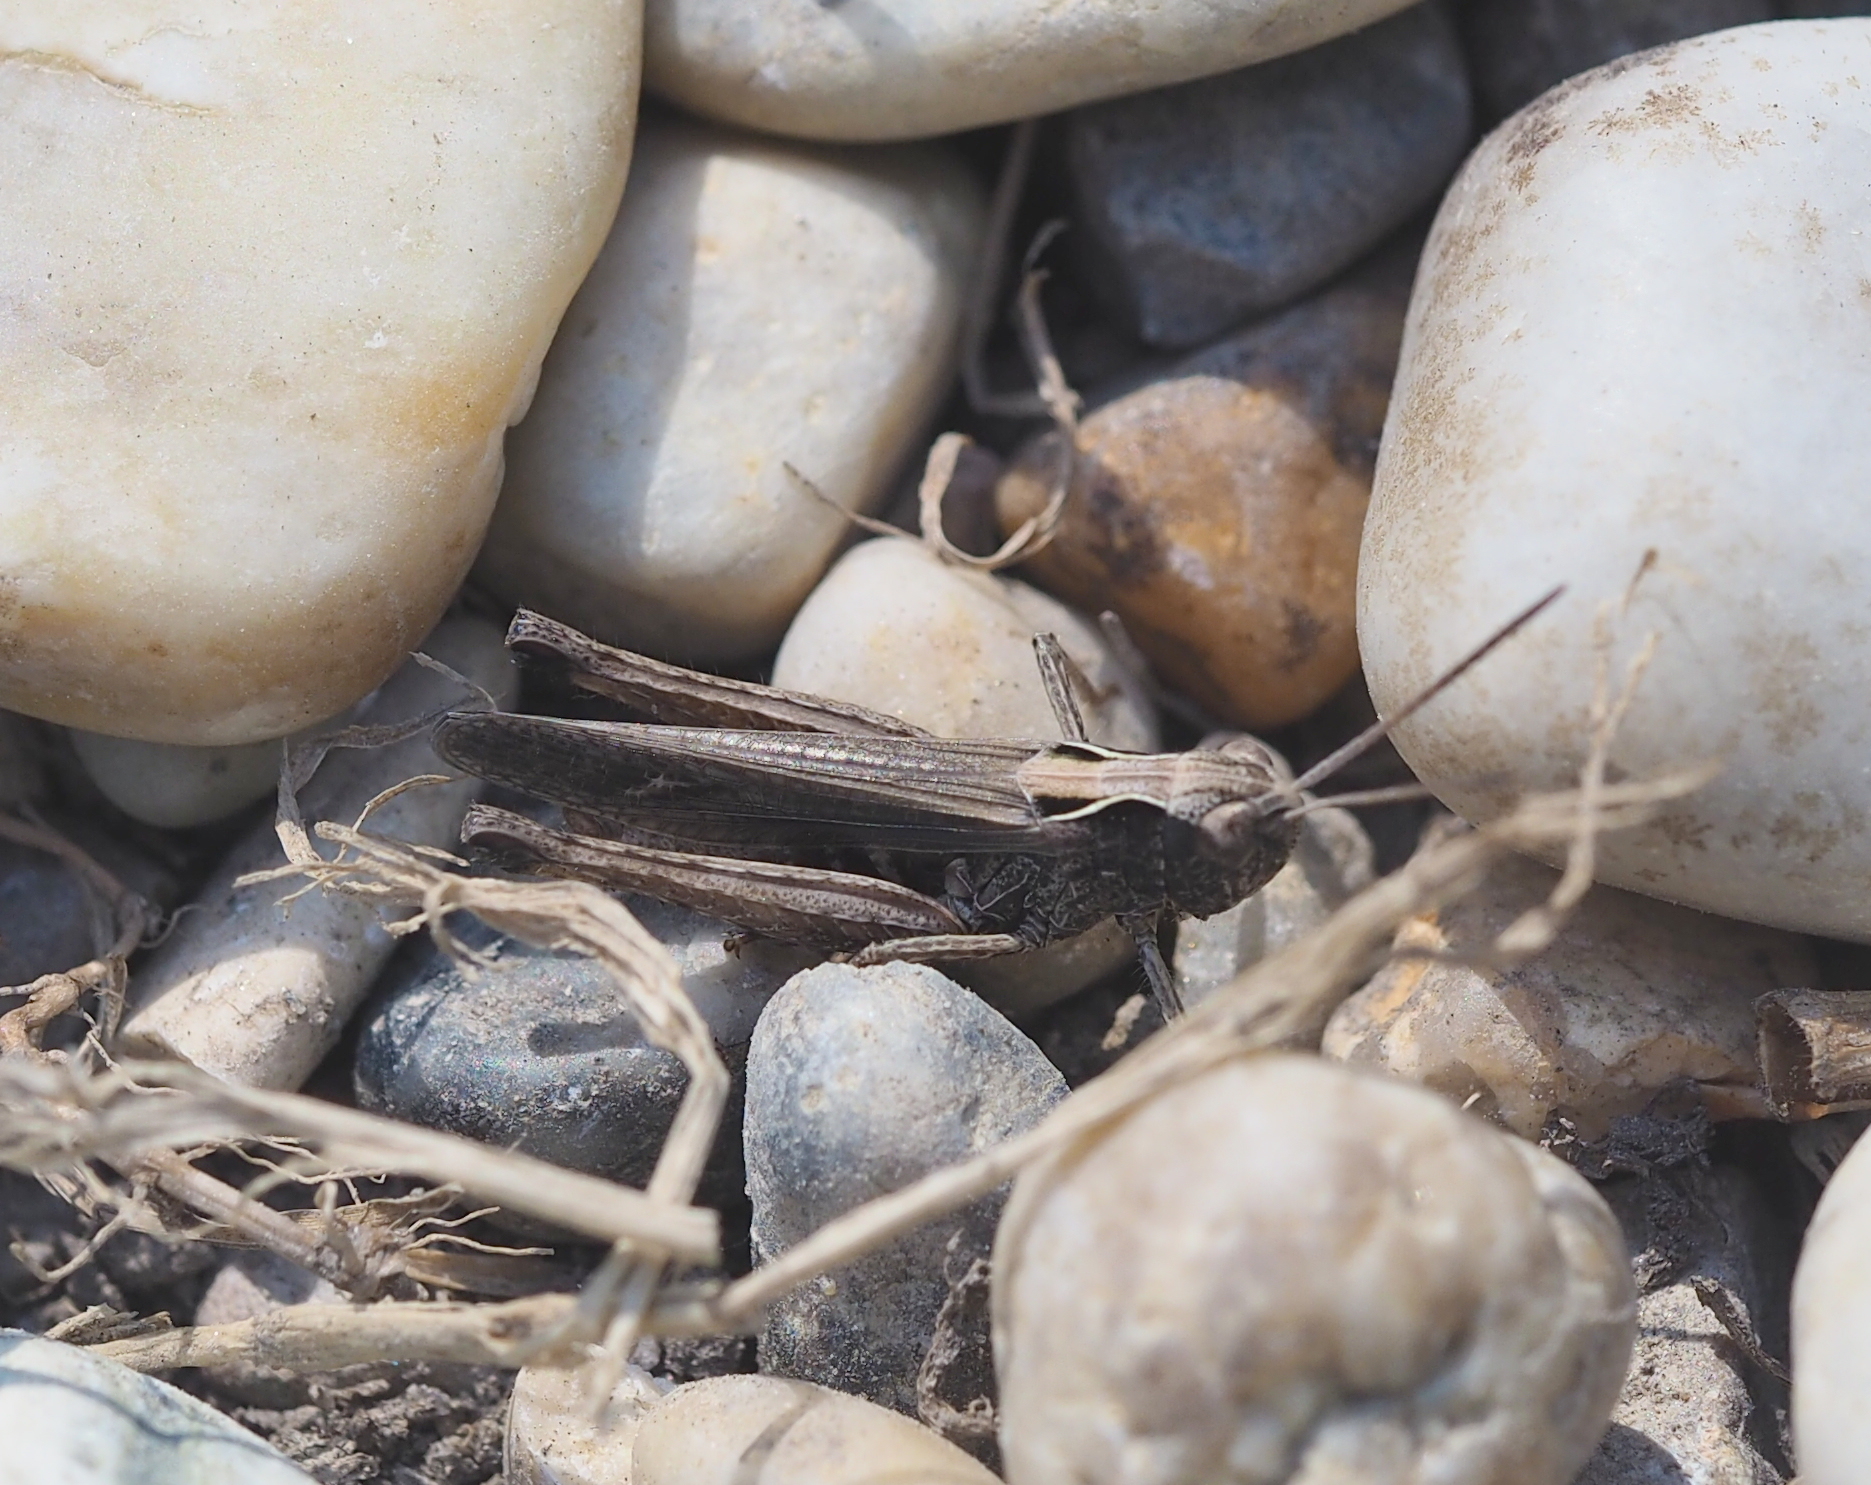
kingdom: Animalia
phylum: Arthropoda
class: Insecta
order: Orthoptera
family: Acrididae
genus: Omocestus
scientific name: Omocestus rufipes
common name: Woodland grasshopper
